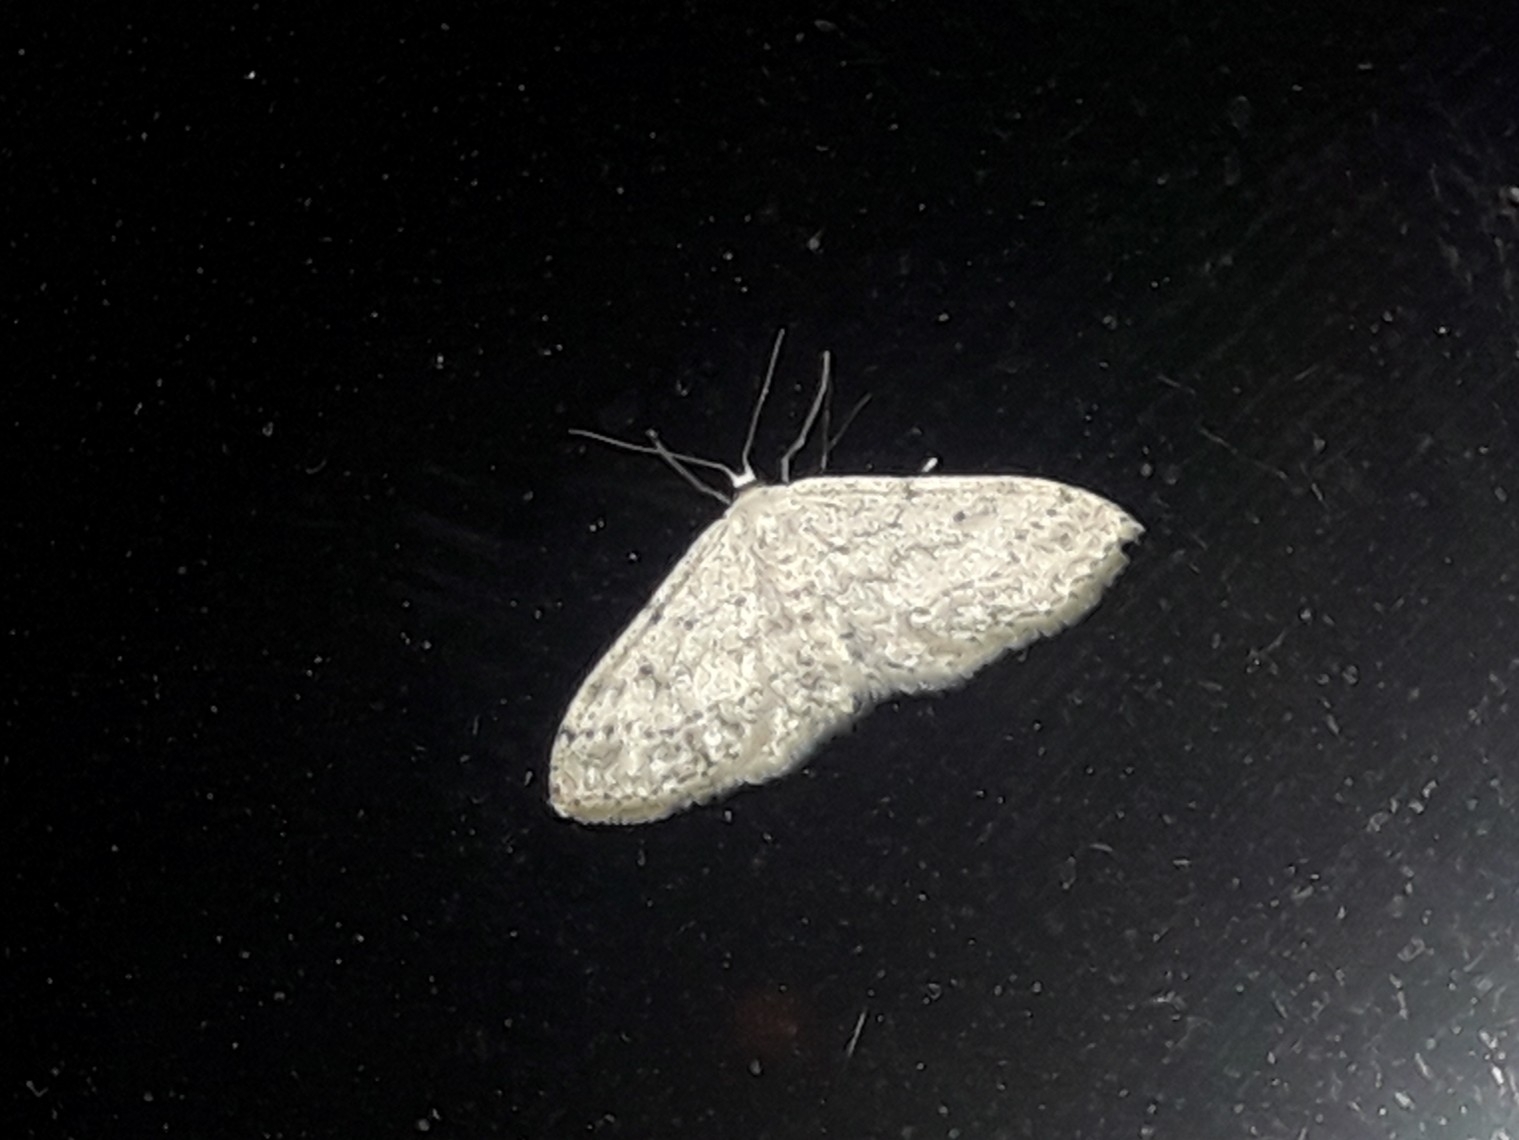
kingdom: Animalia
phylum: Arthropoda
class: Insecta
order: Lepidoptera
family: Geometridae
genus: Idaea
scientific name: Idaea seriata
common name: Small dusty wave
